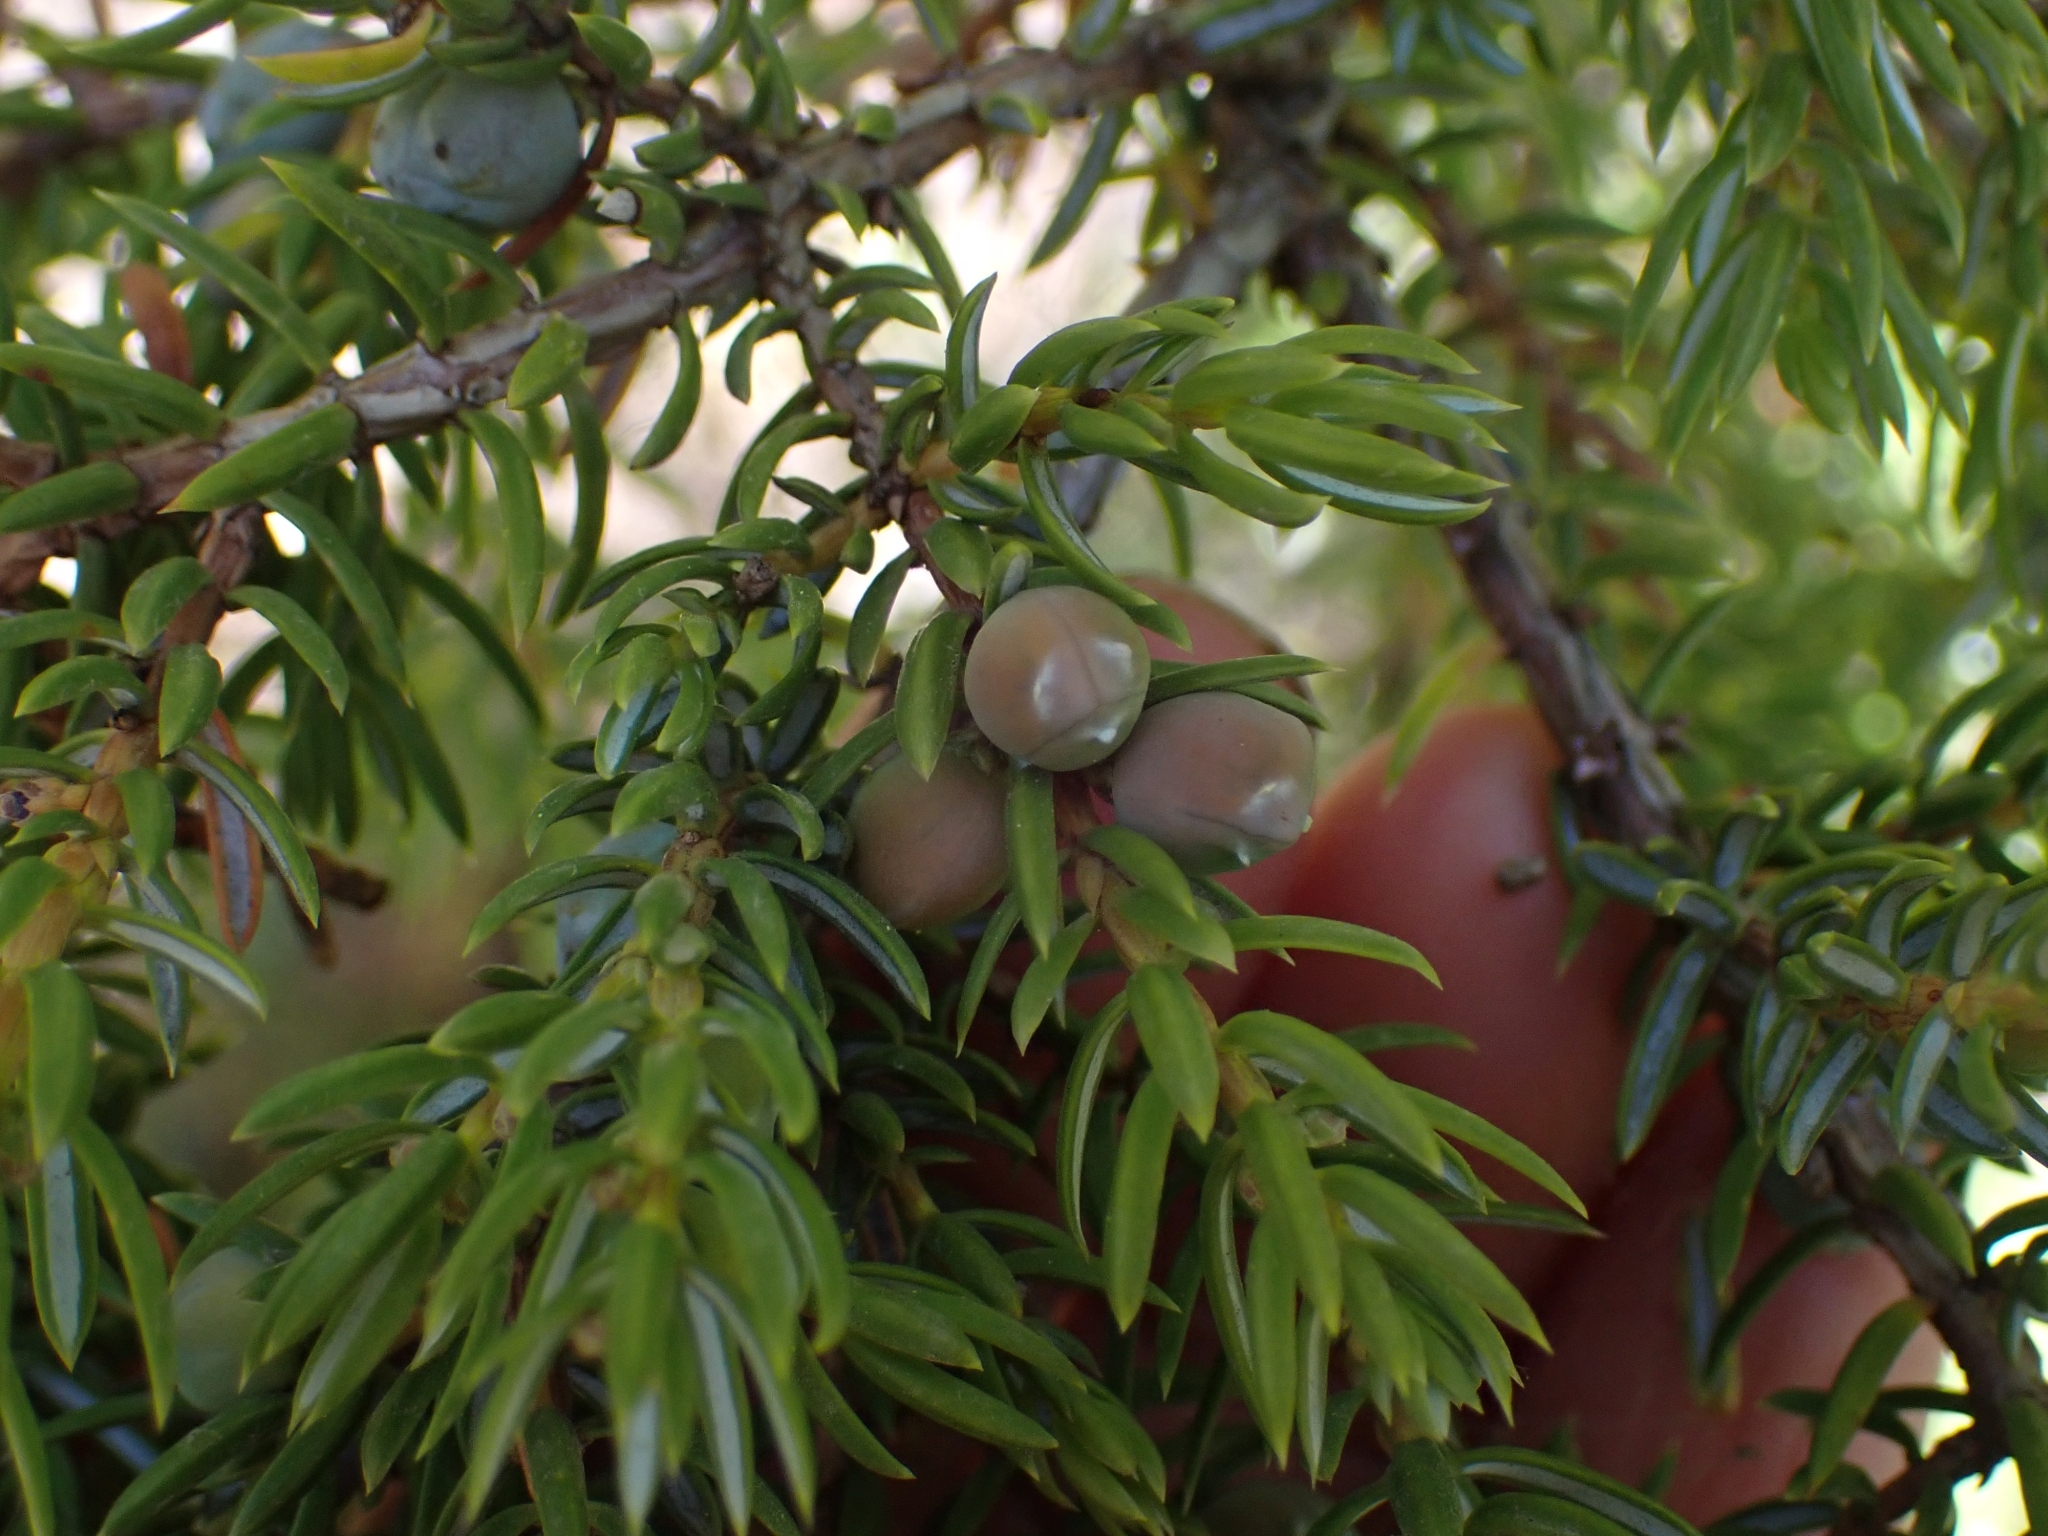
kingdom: Plantae
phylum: Tracheophyta
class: Pinopsida
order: Pinales
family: Cupressaceae
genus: Juniperus
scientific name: Juniperus communis
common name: Common juniper
